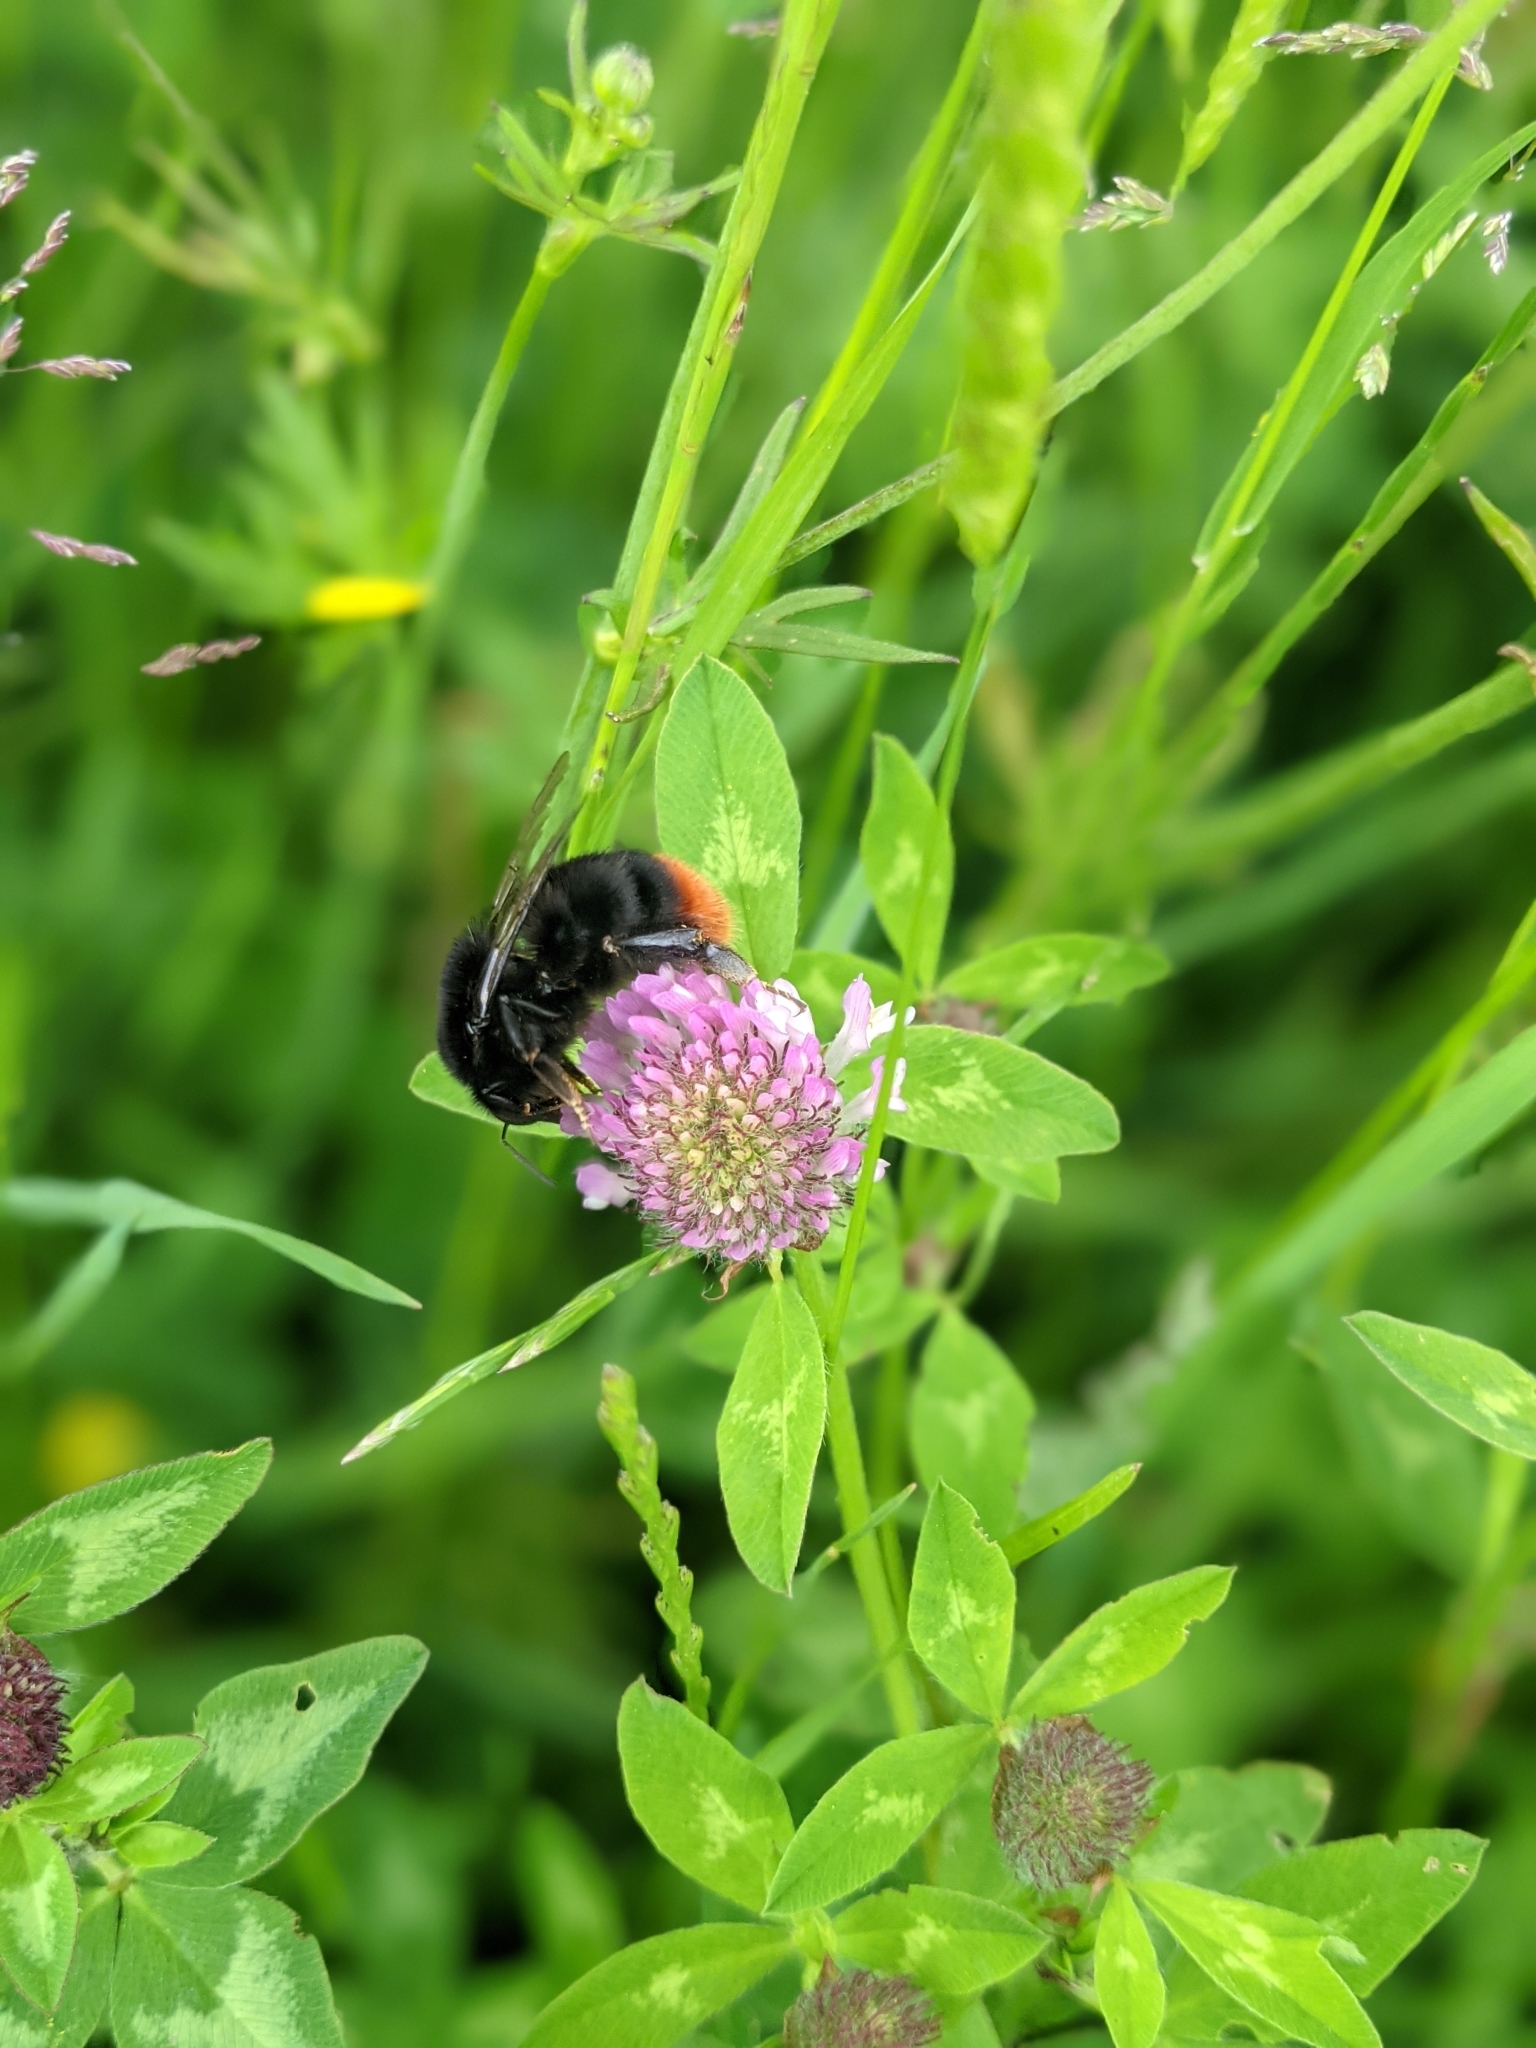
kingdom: Animalia
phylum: Arthropoda
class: Insecta
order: Hymenoptera
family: Apidae
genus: Bombus
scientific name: Bombus lapidarius
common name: Large red-tailed humble-bee
